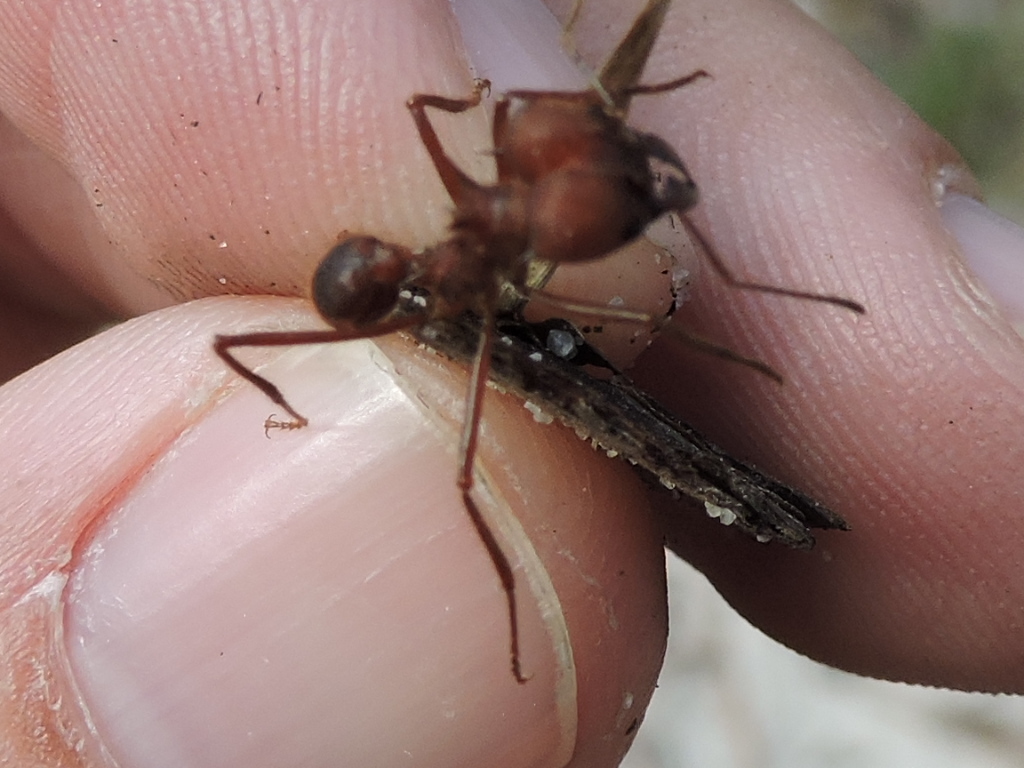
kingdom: Animalia
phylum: Arthropoda
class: Insecta
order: Hymenoptera
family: Formicidae
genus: Atta
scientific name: Atta texana
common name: Texas leafcutting ant
